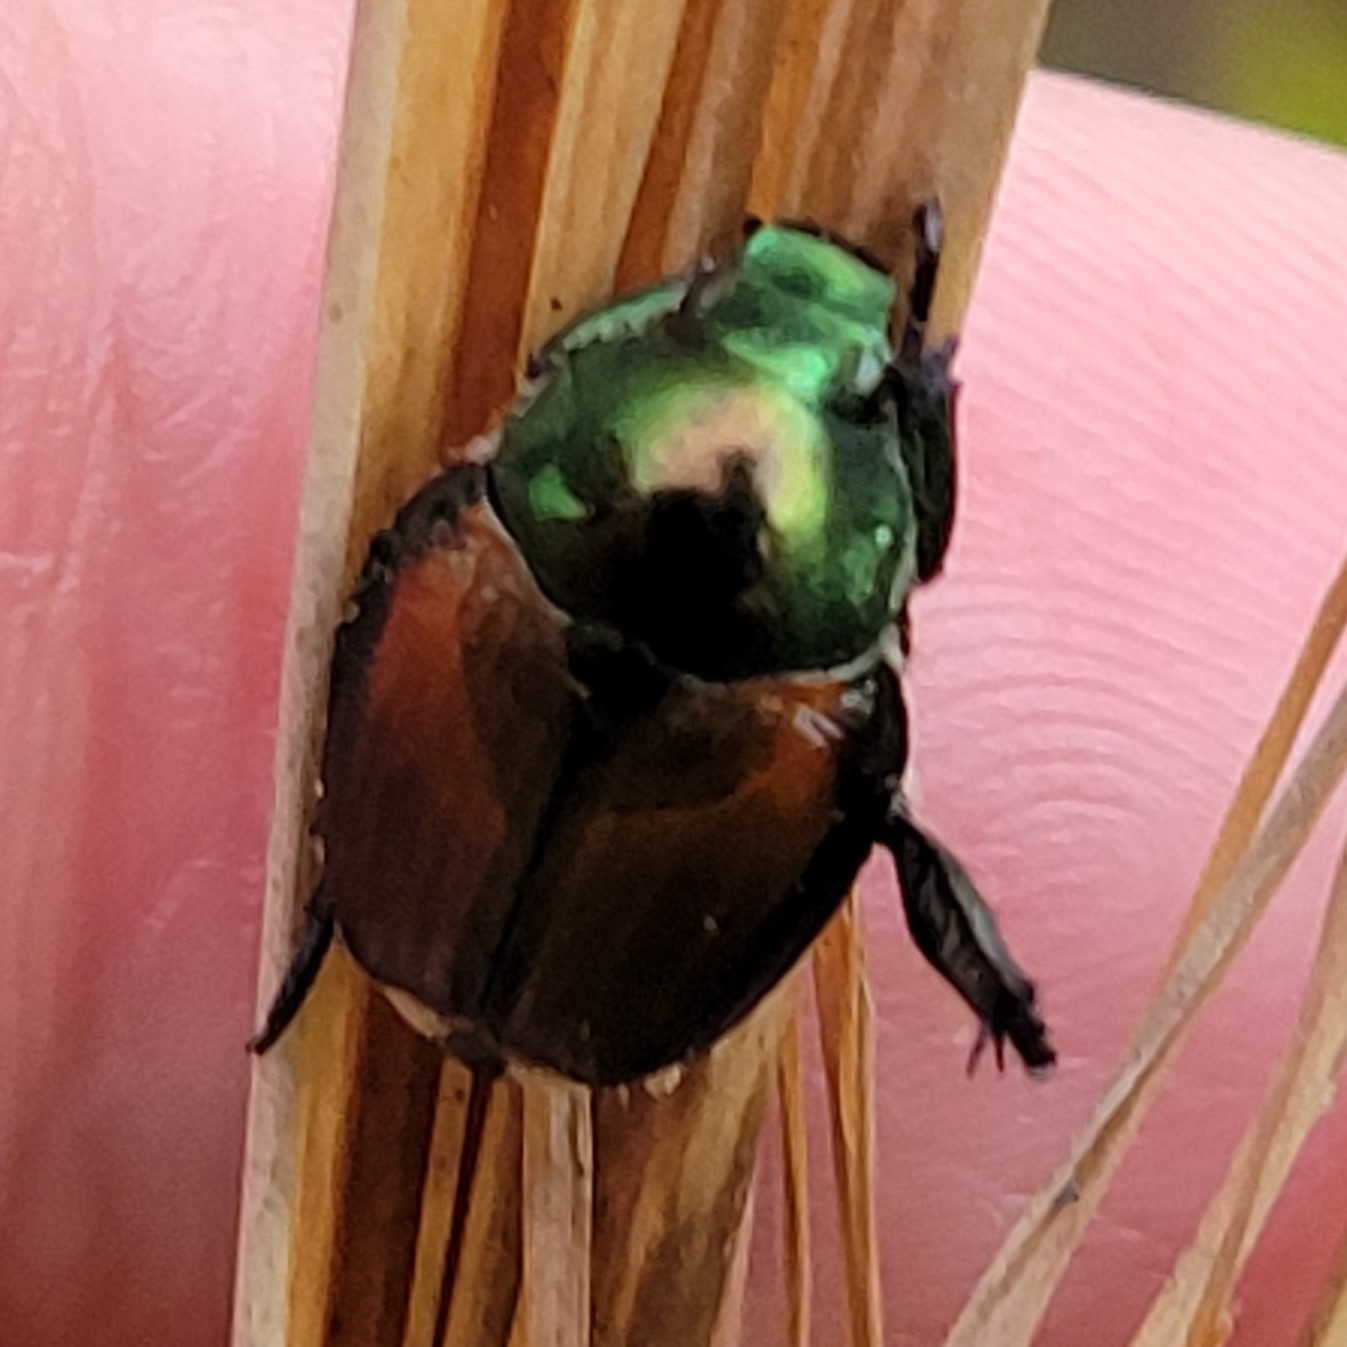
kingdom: Animalia
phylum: Arthropoda
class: Insecta
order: Coleoptera
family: Scarabaeidae
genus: Popillia
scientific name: Popillia japonica
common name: Japanese beetle
